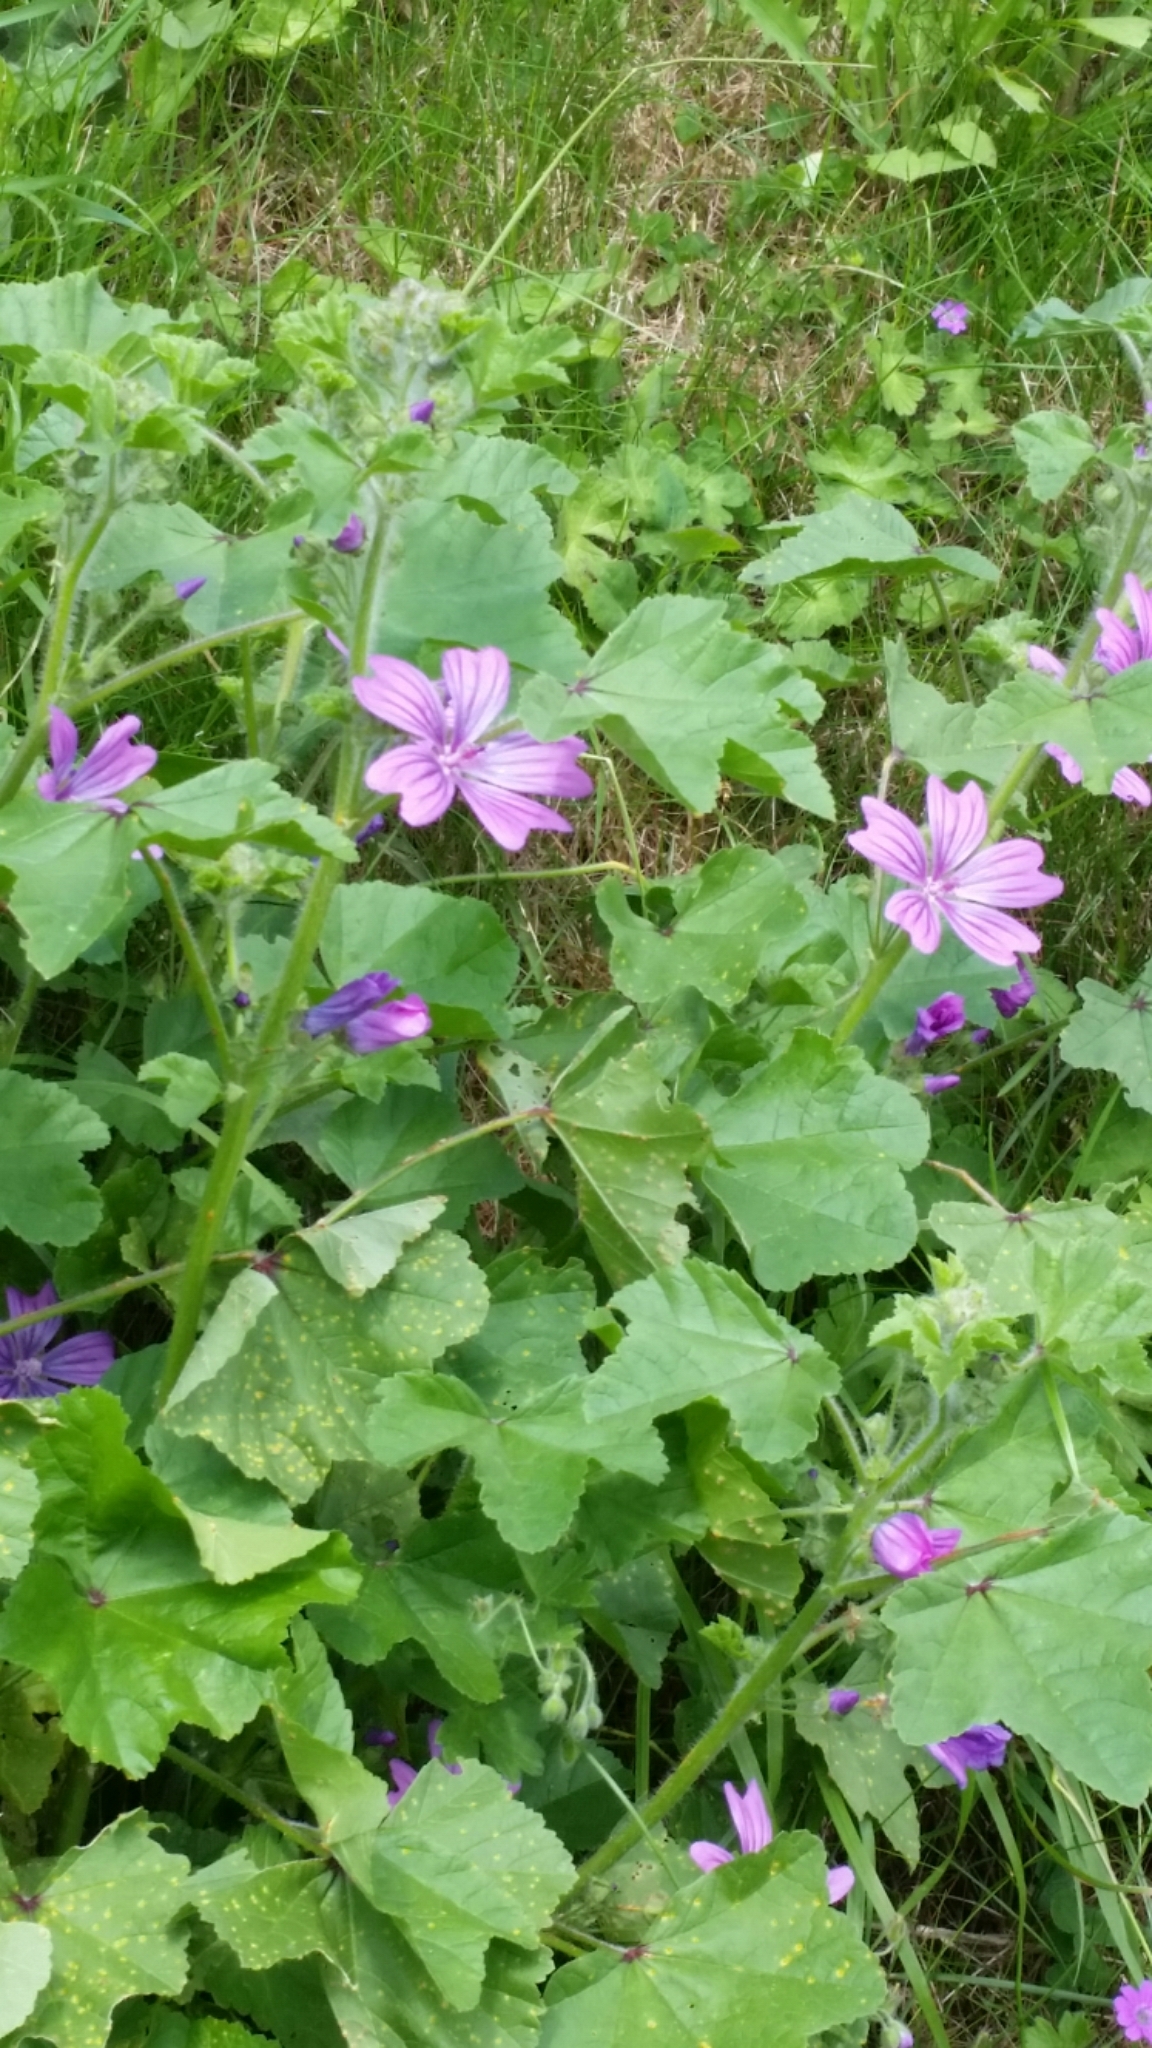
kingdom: Plantae
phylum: Tracheophyta
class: Magnoliopsida
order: Malvales
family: Malvaceae
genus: Malva
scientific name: Malva sylvestris
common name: Common mallow
